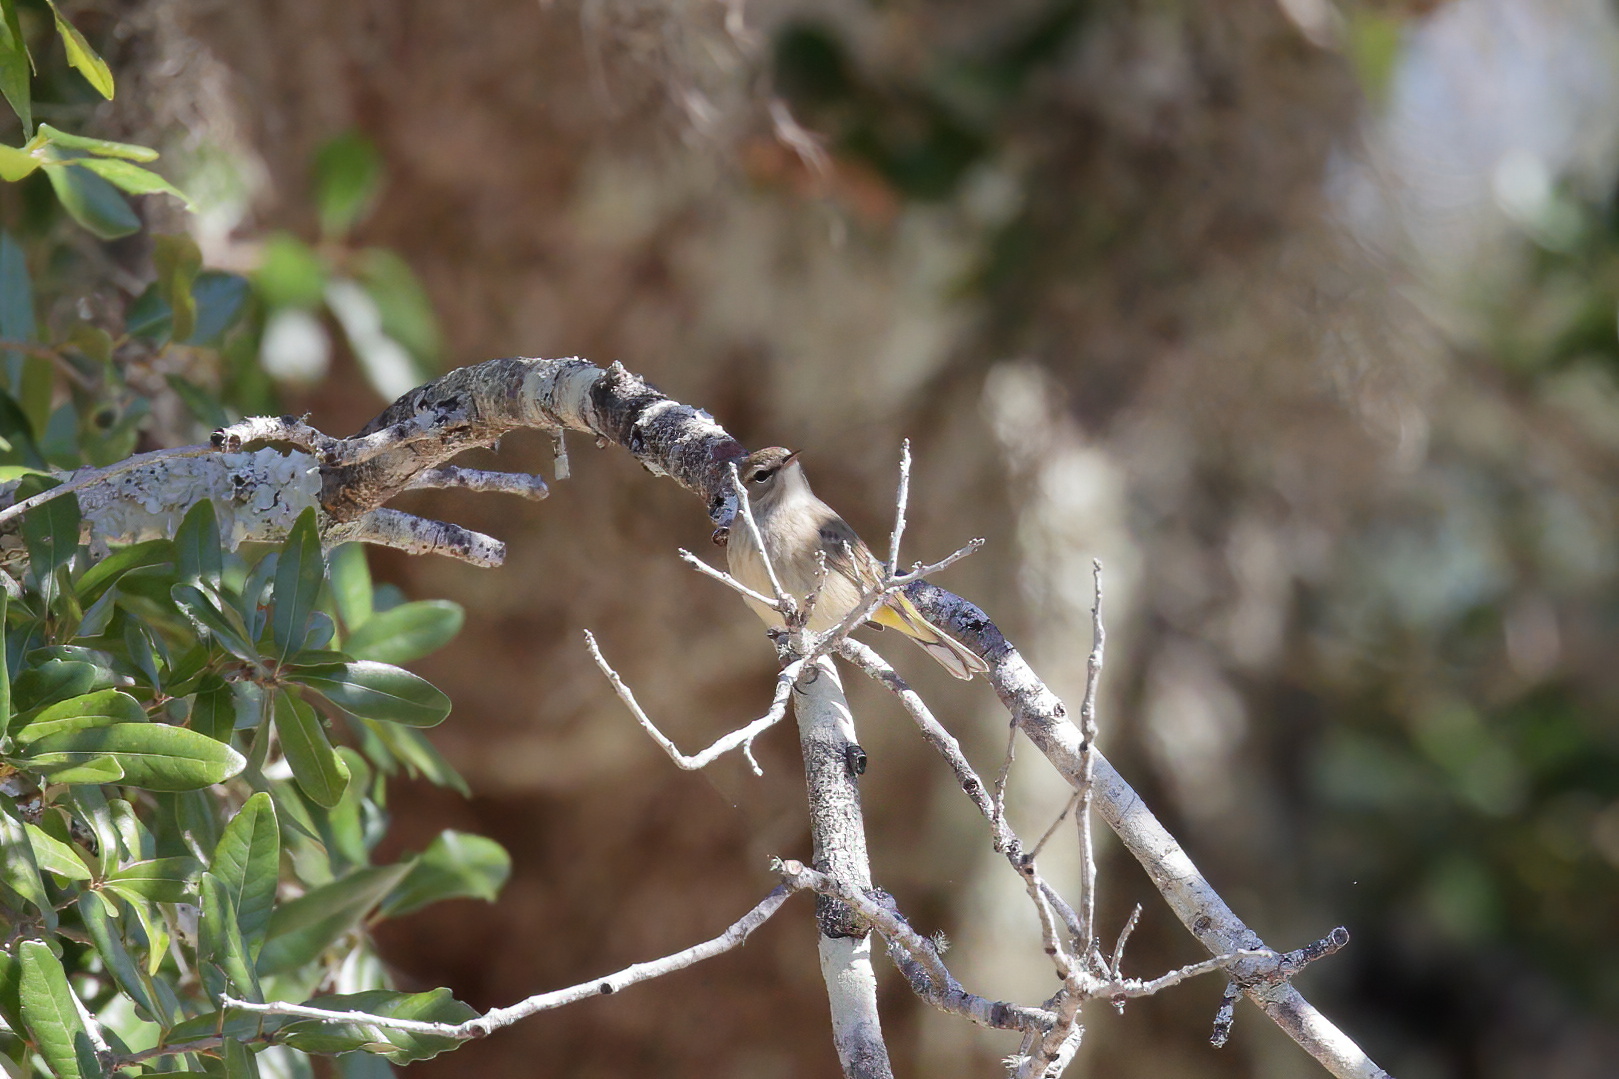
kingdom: Animalia
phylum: Chordata
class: Aves
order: Passeriformes
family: Parulidae
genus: Setophaga
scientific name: Setophaga palmarum
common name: Palm warbler
